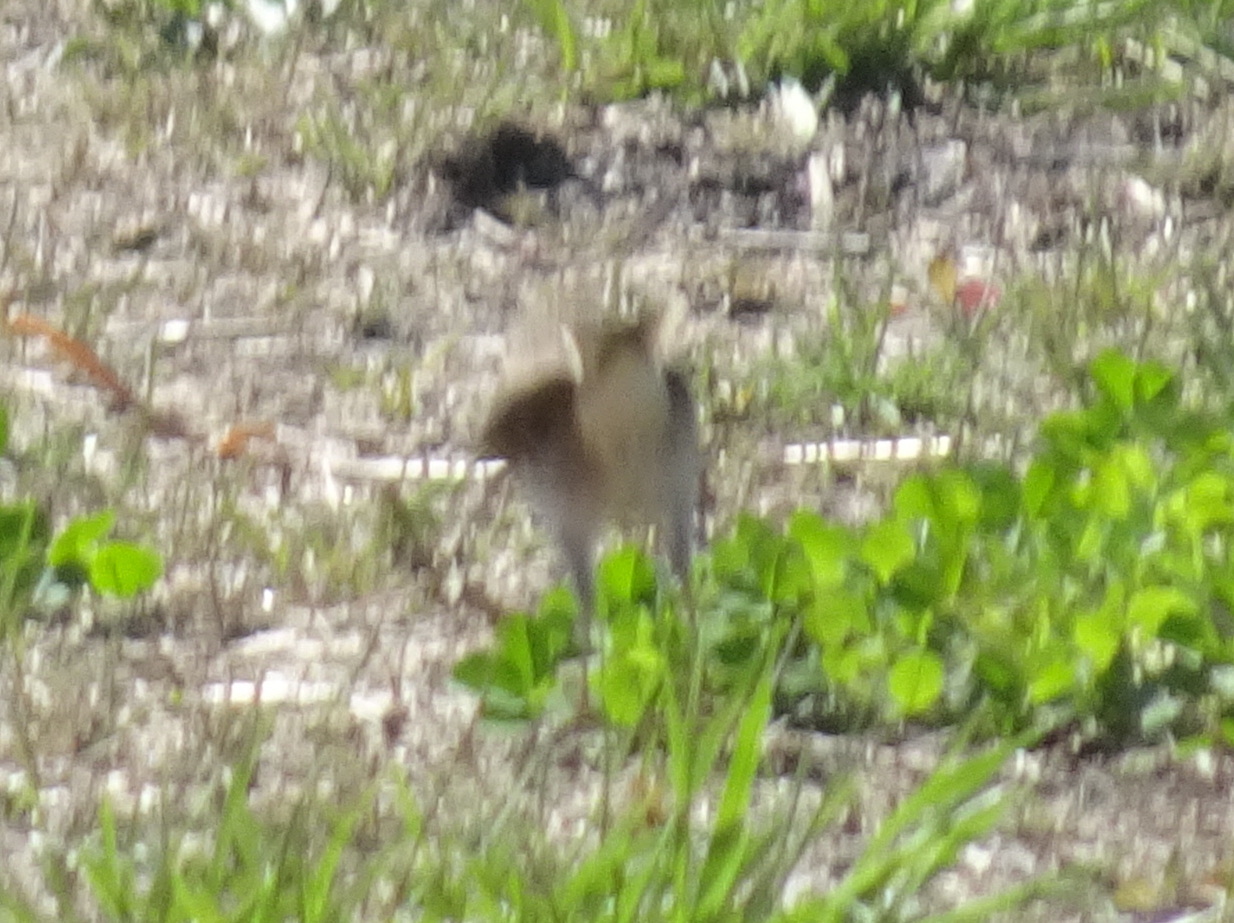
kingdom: Animalia
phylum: Chordata
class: Aves
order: Passeriformes
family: Passerellidae
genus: Pooecetes
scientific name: Pooecetes gramineus
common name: Vesper sparrow
